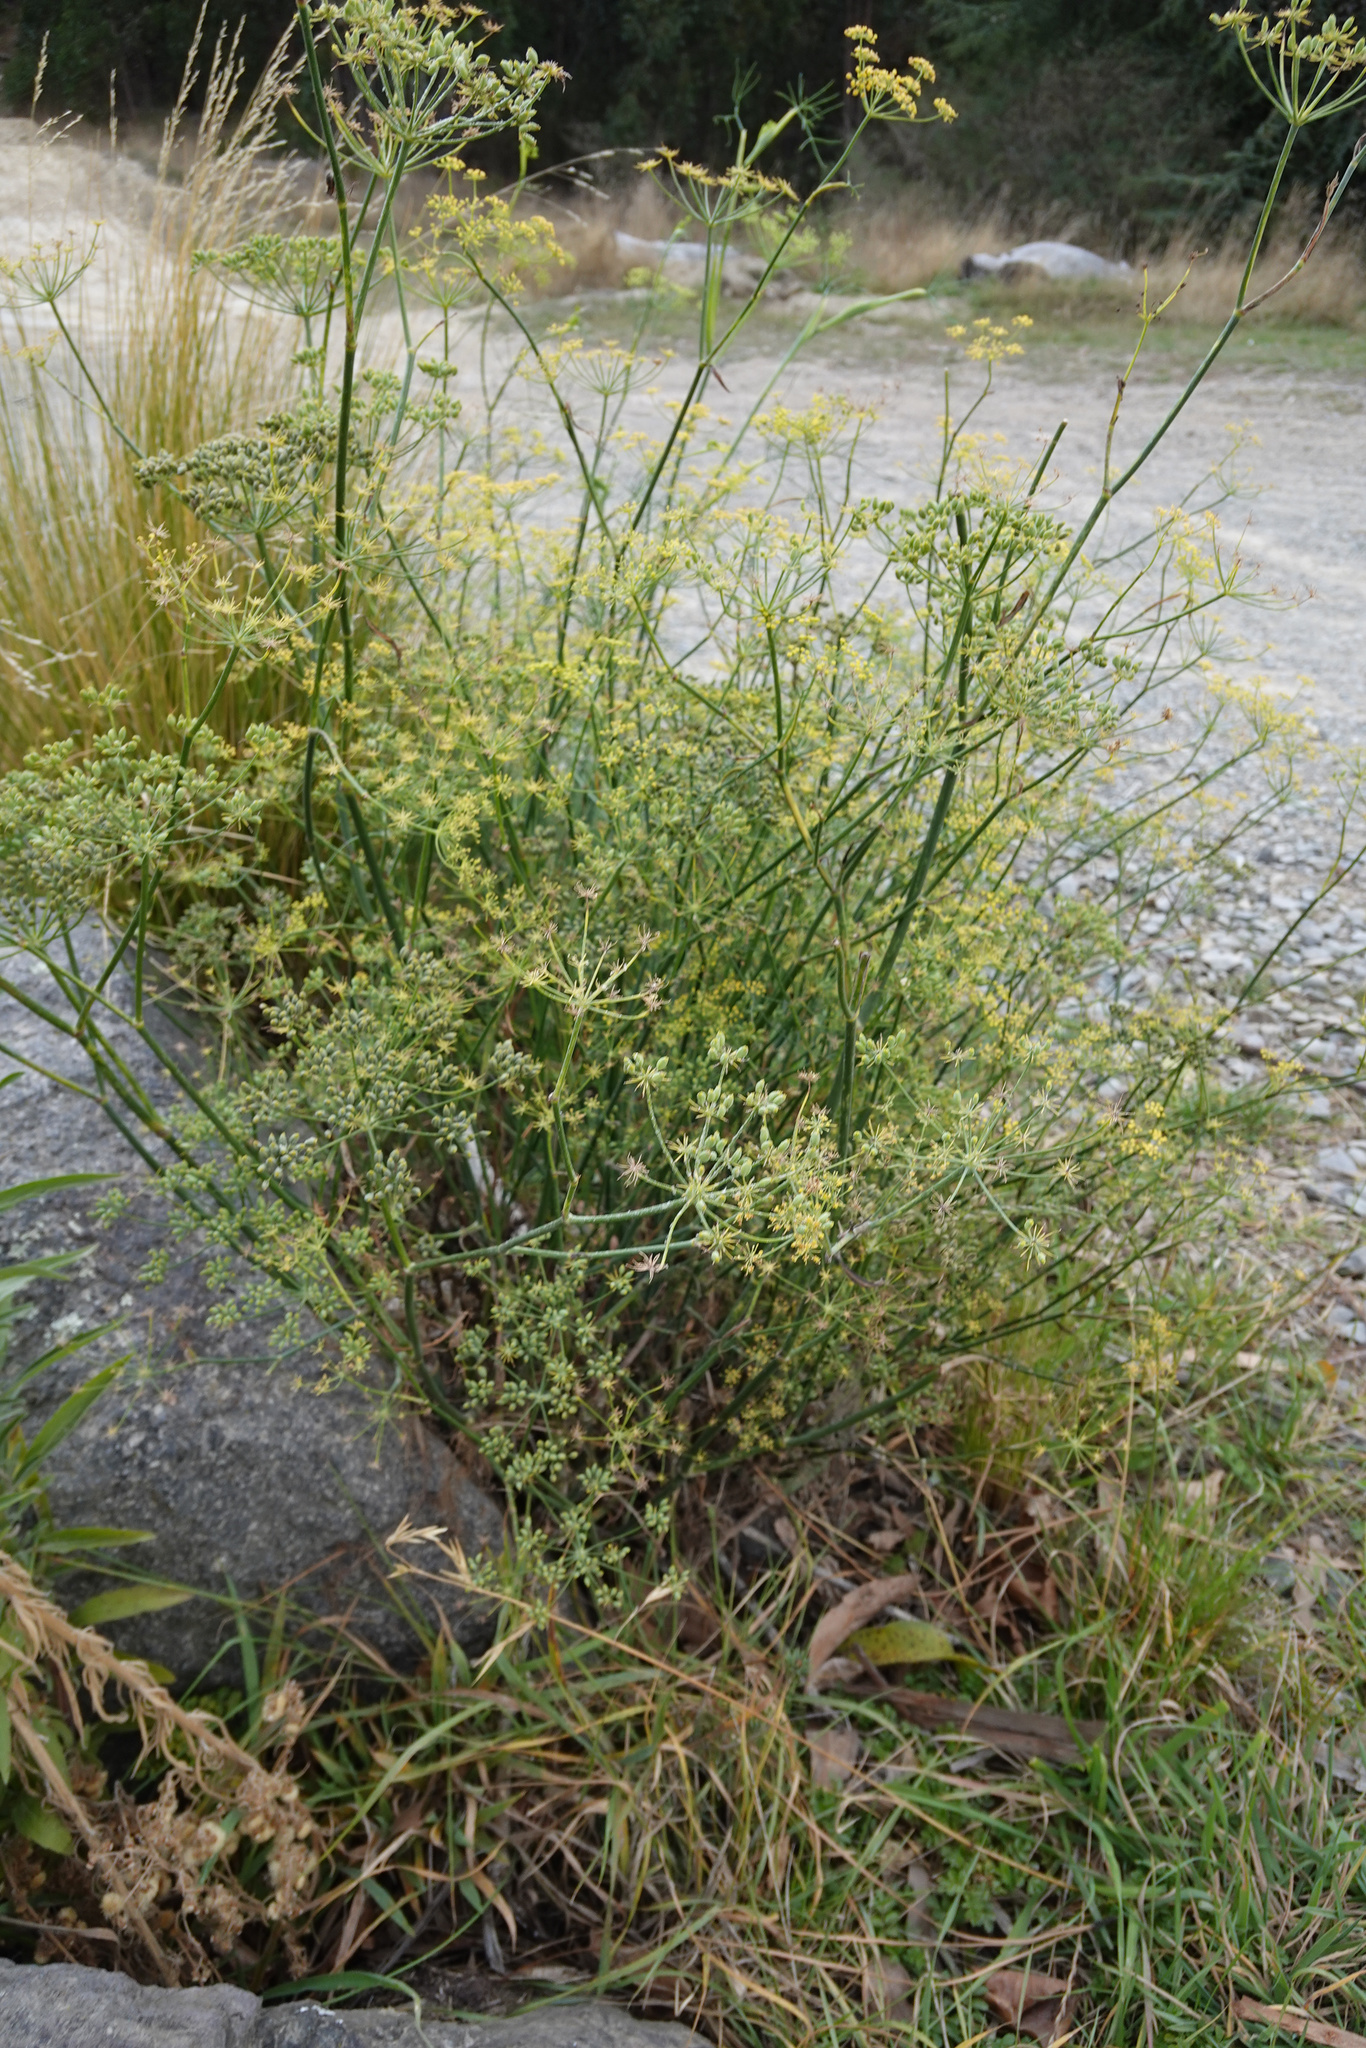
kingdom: Plantae
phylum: Tracheophyta
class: Magnoliopsida
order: Apiales
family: Apiaceae
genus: Foeniculum
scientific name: Foeniculum vulgare
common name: Fennel
